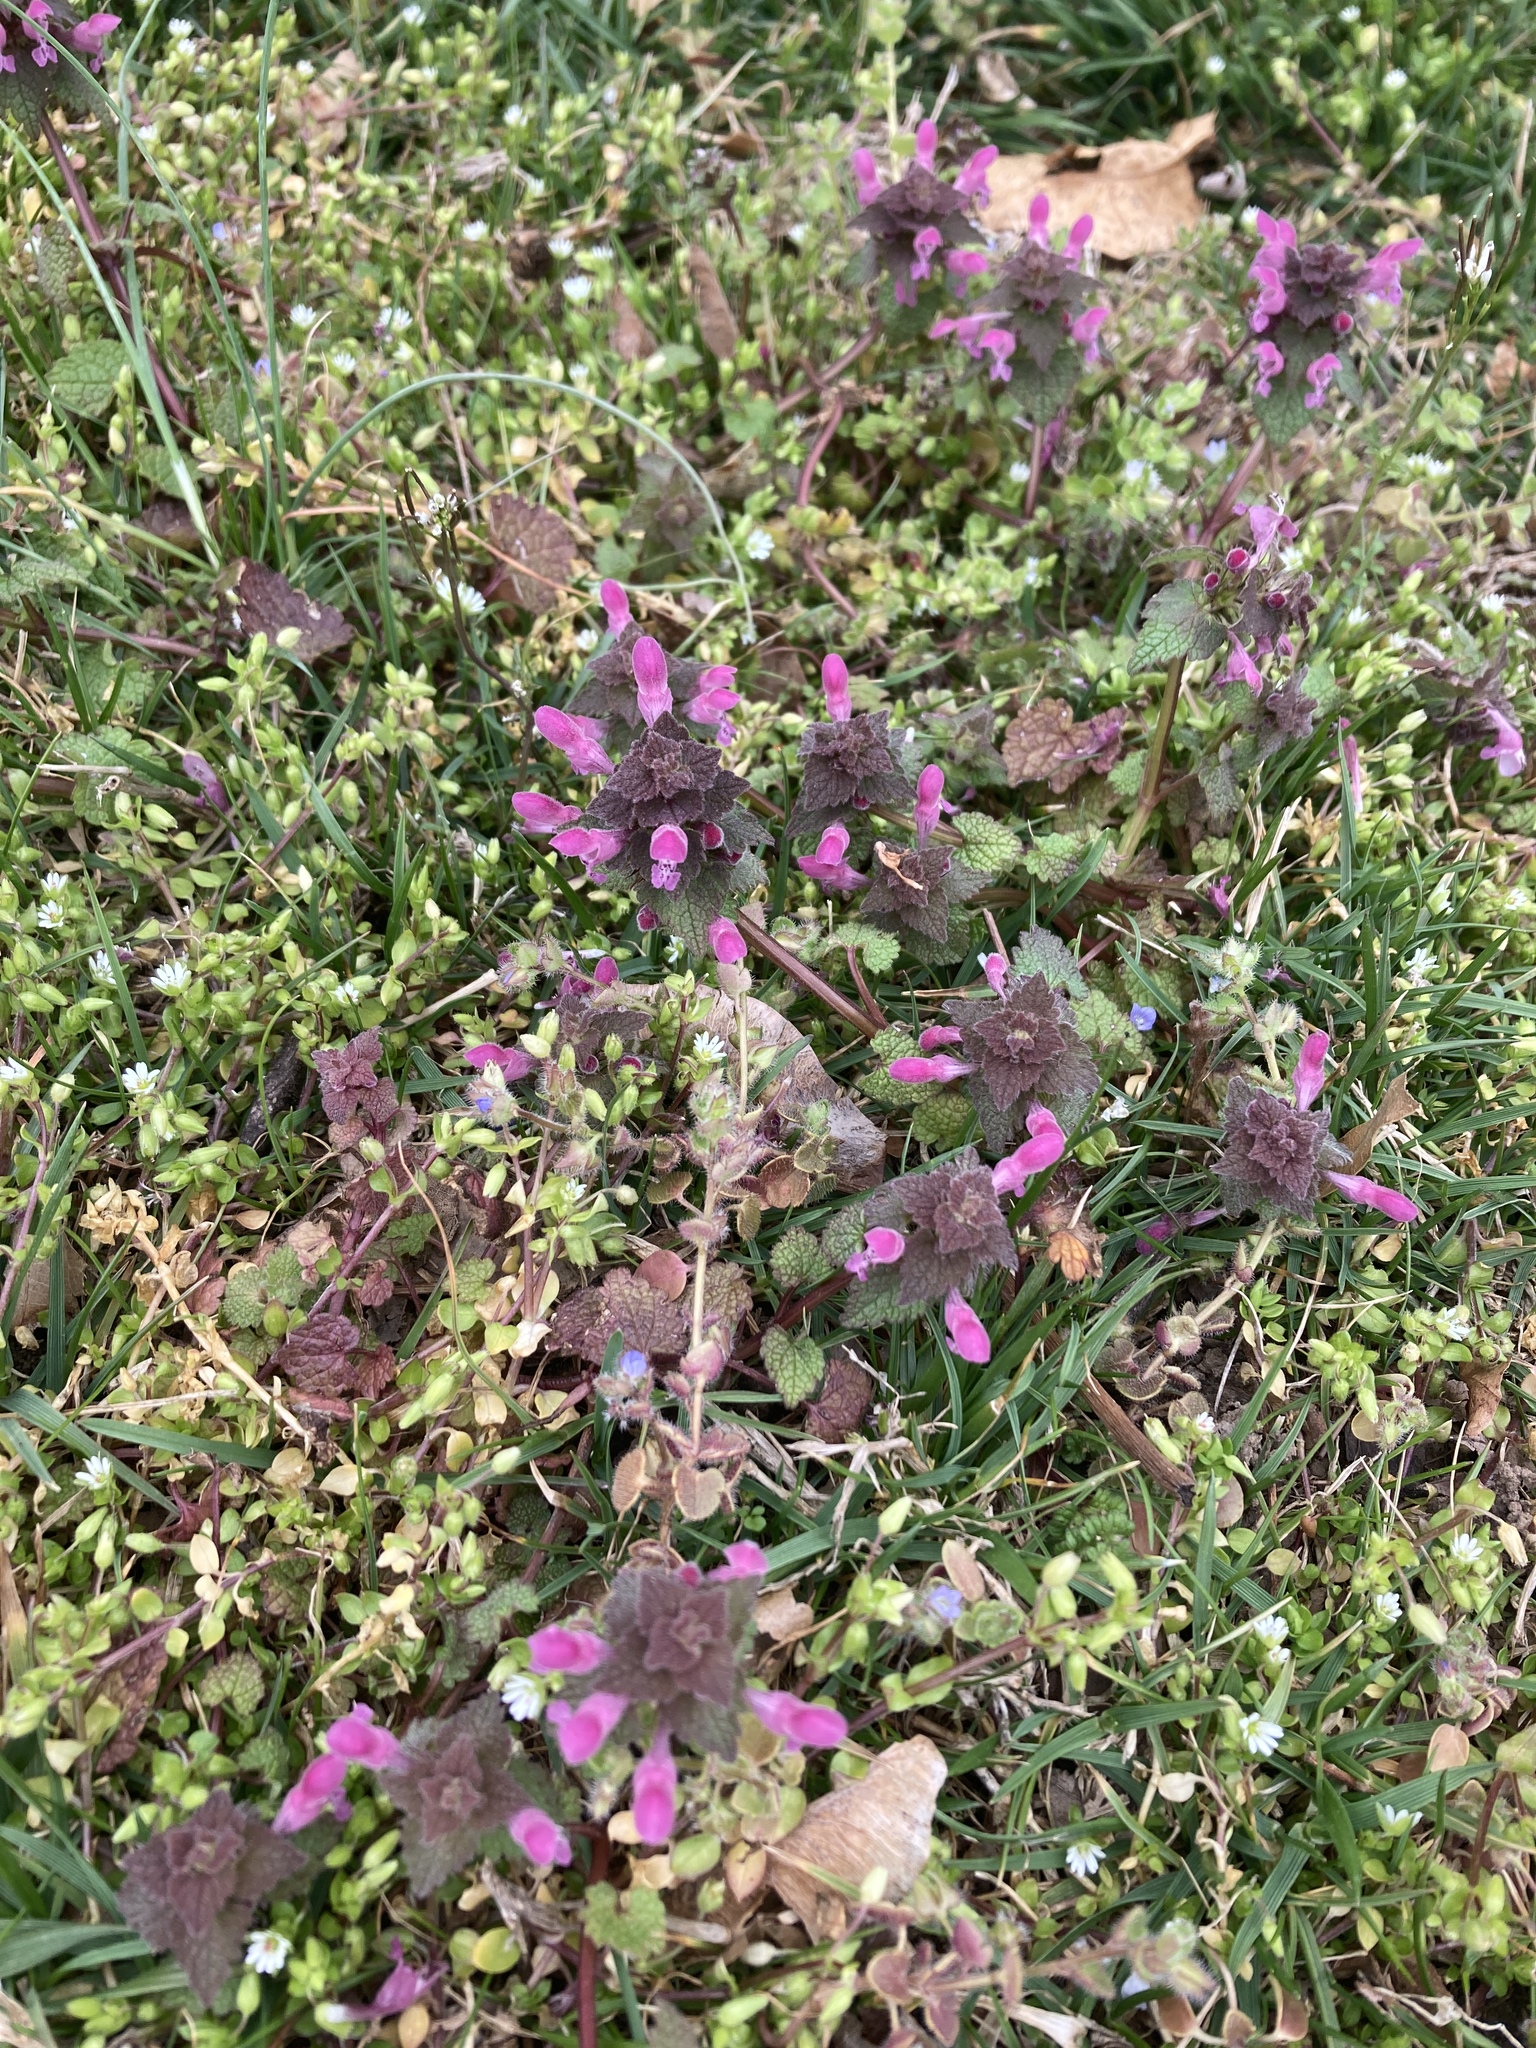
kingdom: Plantae
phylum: Tracheophyta
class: Magnoliopsida
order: Lamiales
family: Lamiaceae
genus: Lamium
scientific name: Lamium purpureum
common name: Red dead-nettle
